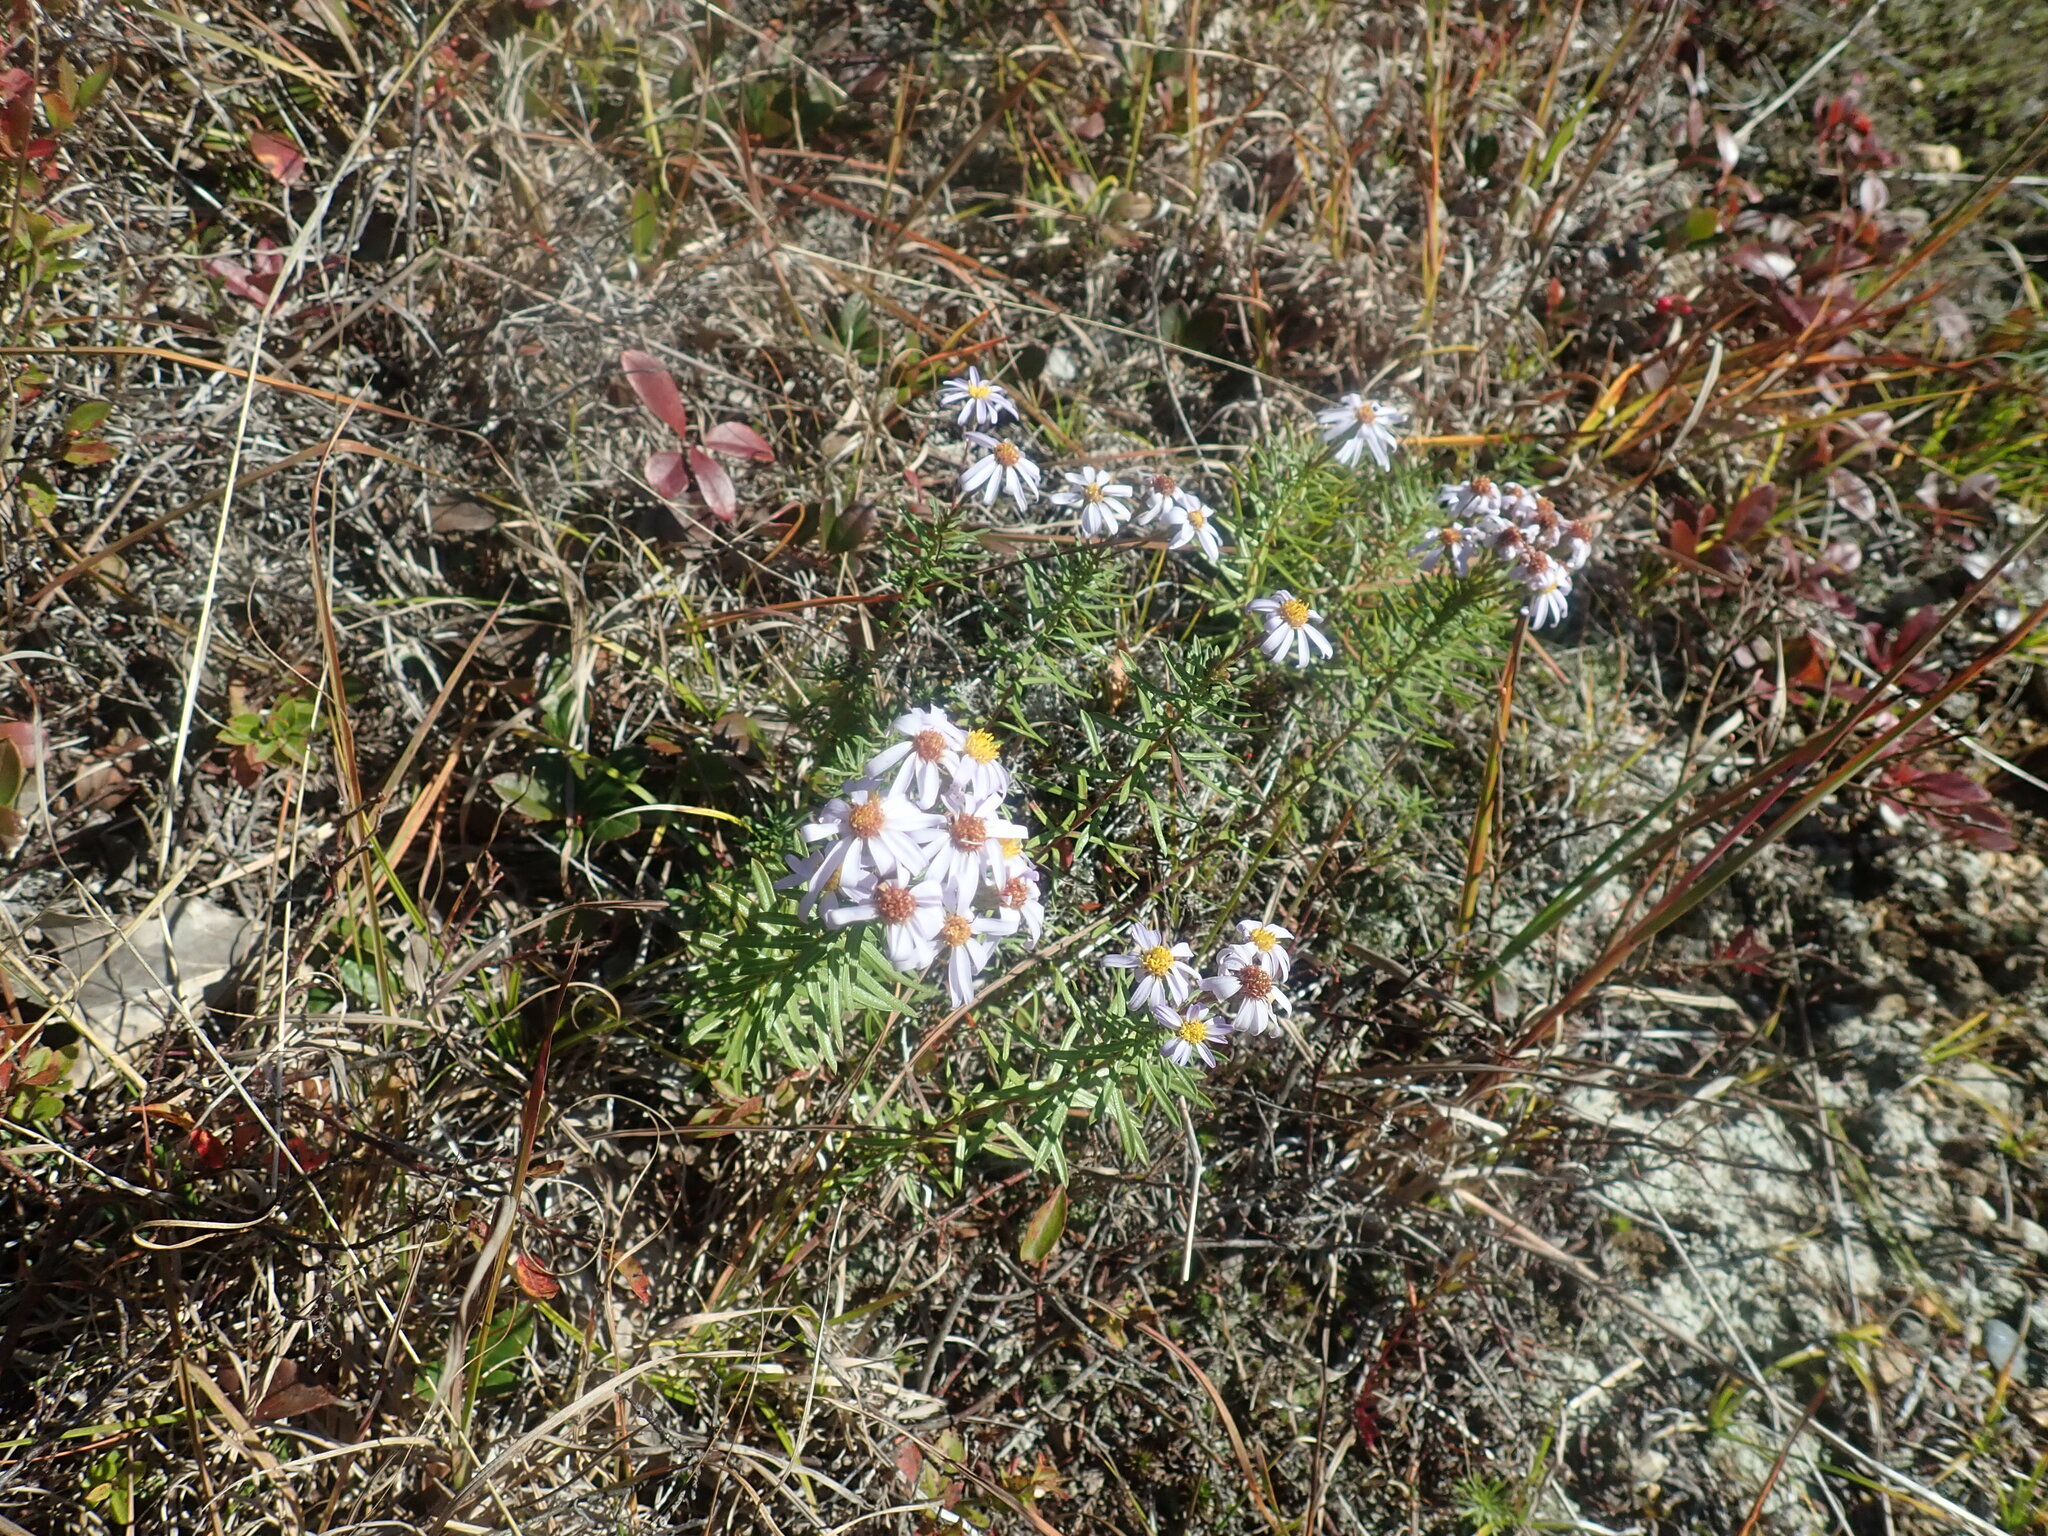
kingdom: Plantae
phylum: Tracheophyta
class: Magnoliopsida
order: Asterales
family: Asteraceae
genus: Ionactis
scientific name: Ionactis linariifolia
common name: Flax-leaf aster
